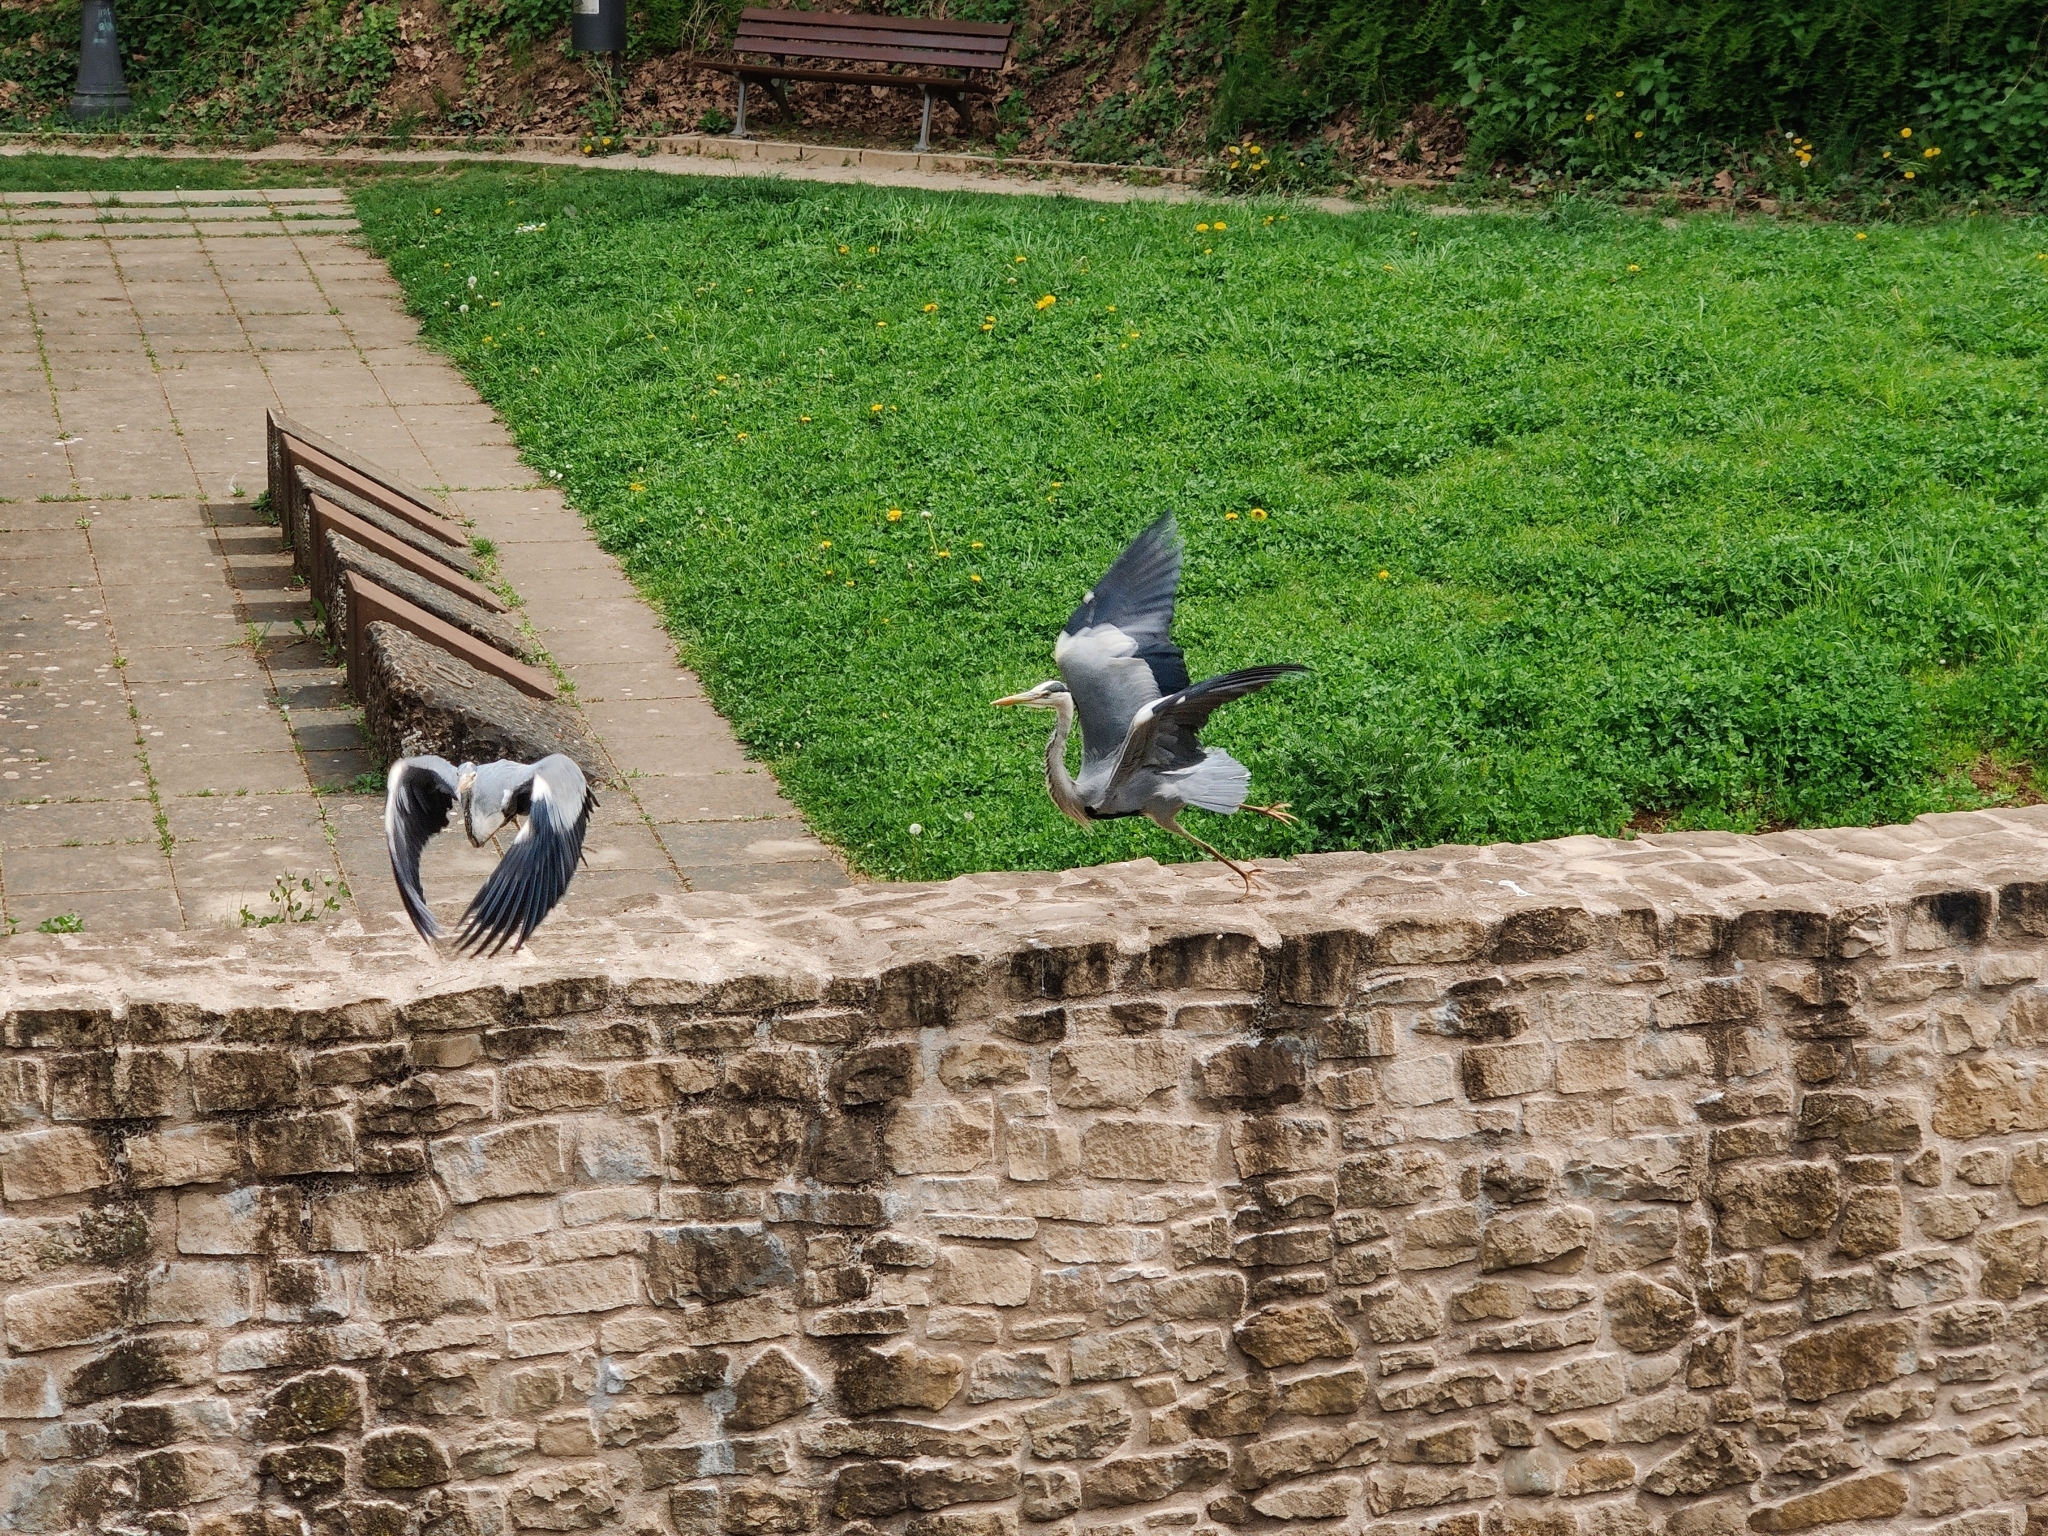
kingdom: Animalia
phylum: Chordata
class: Aves
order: Pelecaniformes
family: Ardeidae
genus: Ardea
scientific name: Ardea cinerea
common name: Grey heron
